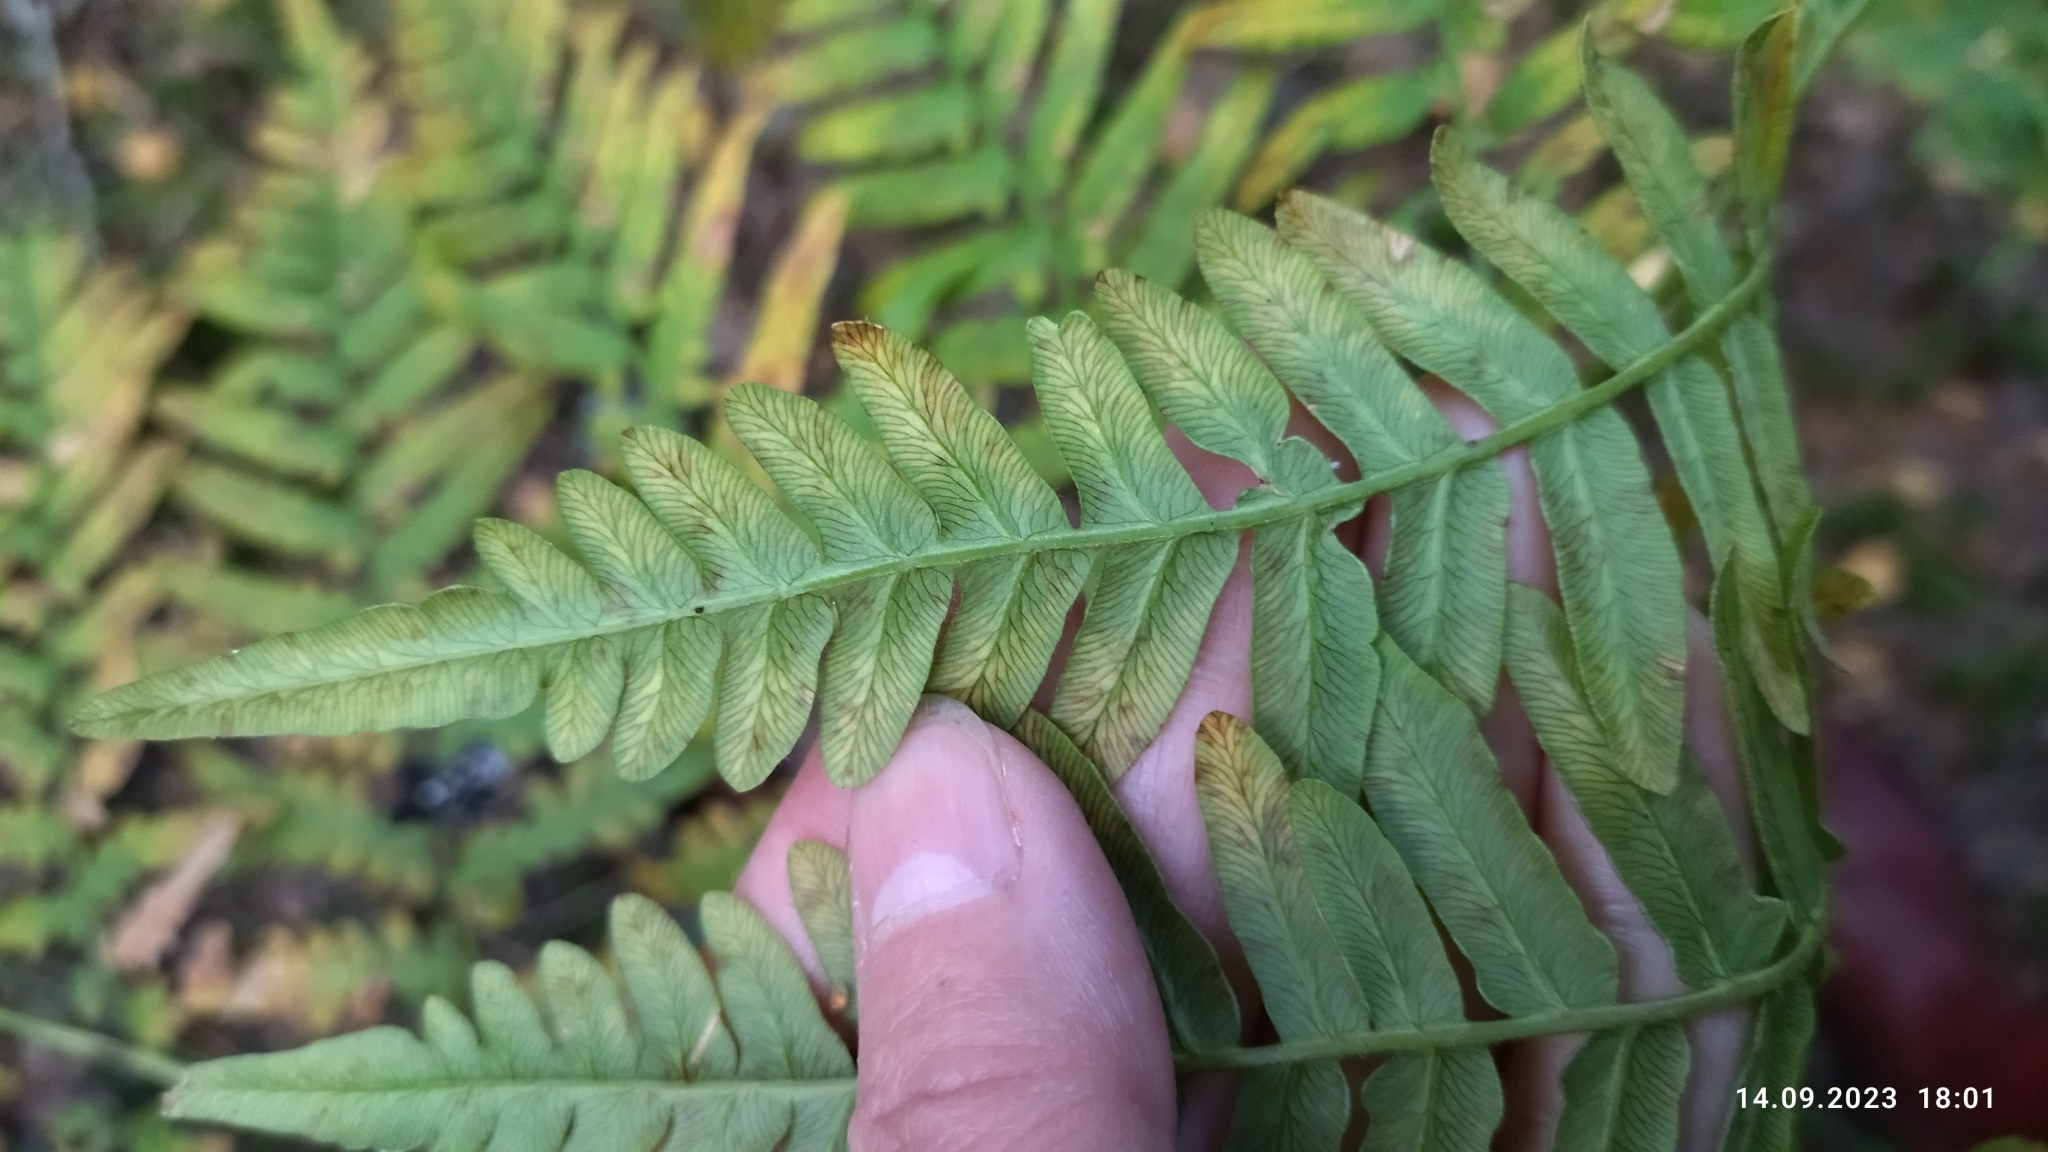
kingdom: Plantae
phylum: Tracheophyta
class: Polypodiopsida
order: Polypodiales
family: Dennstaedtiaceae
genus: Pteridium
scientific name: Pteridium aquilinum
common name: Bracken
